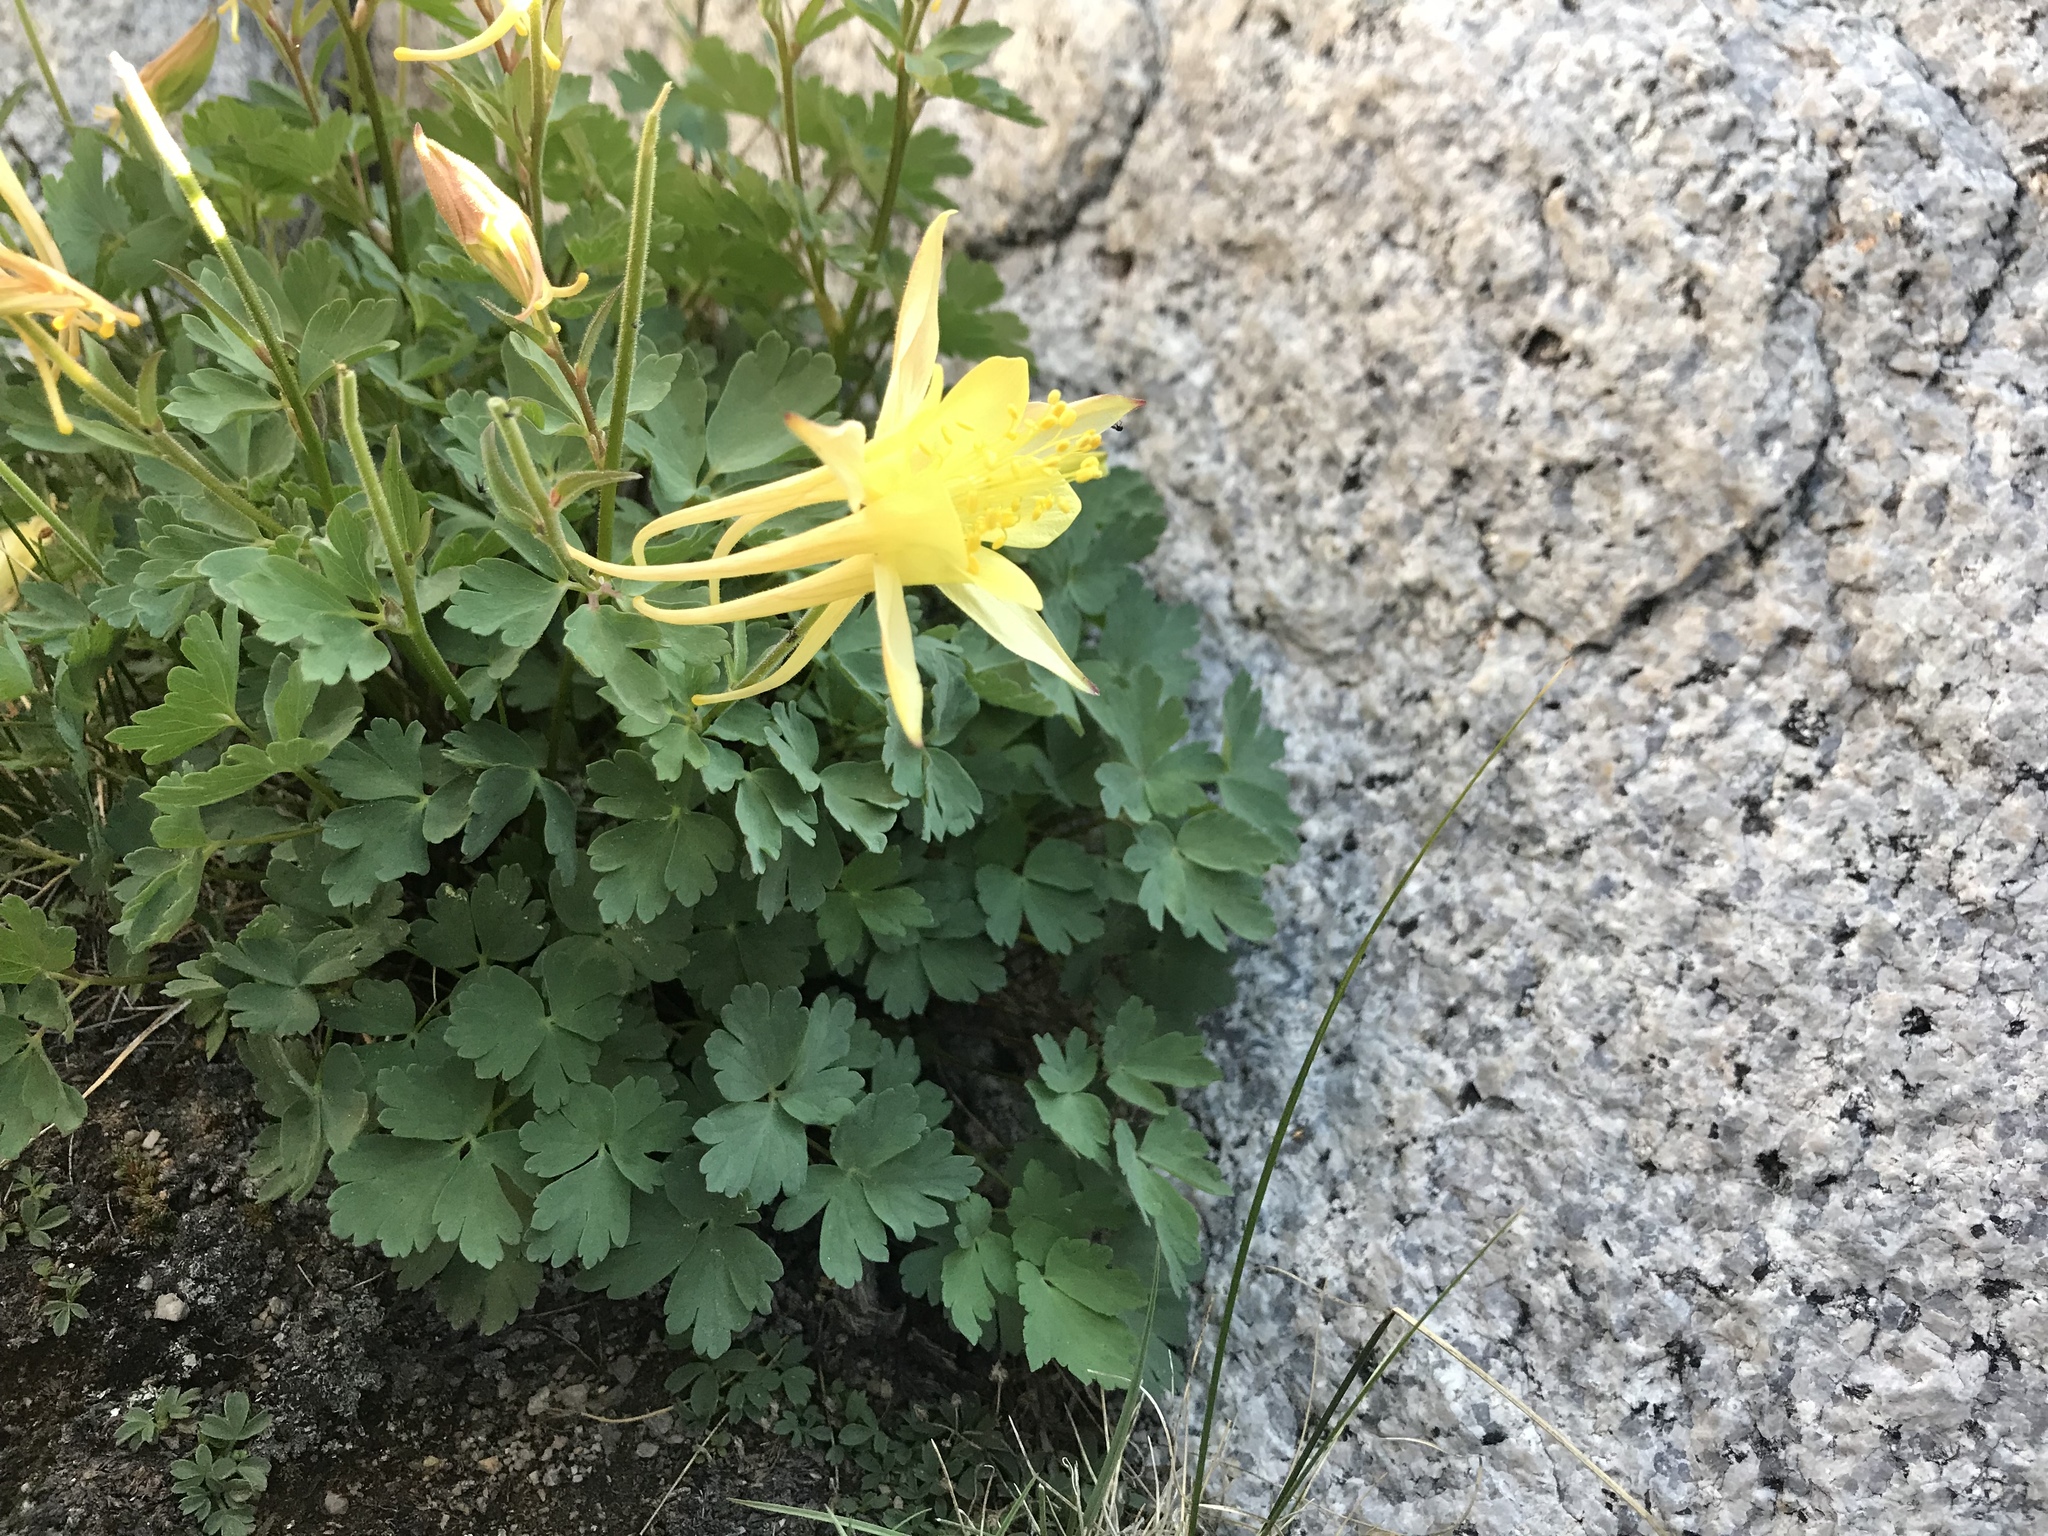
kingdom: Plantae
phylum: Tracheophyta
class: Magnoliopsida
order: Ranunculales
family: Ranunculaceae
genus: Aquilegia
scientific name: Aquilegia pubescens
